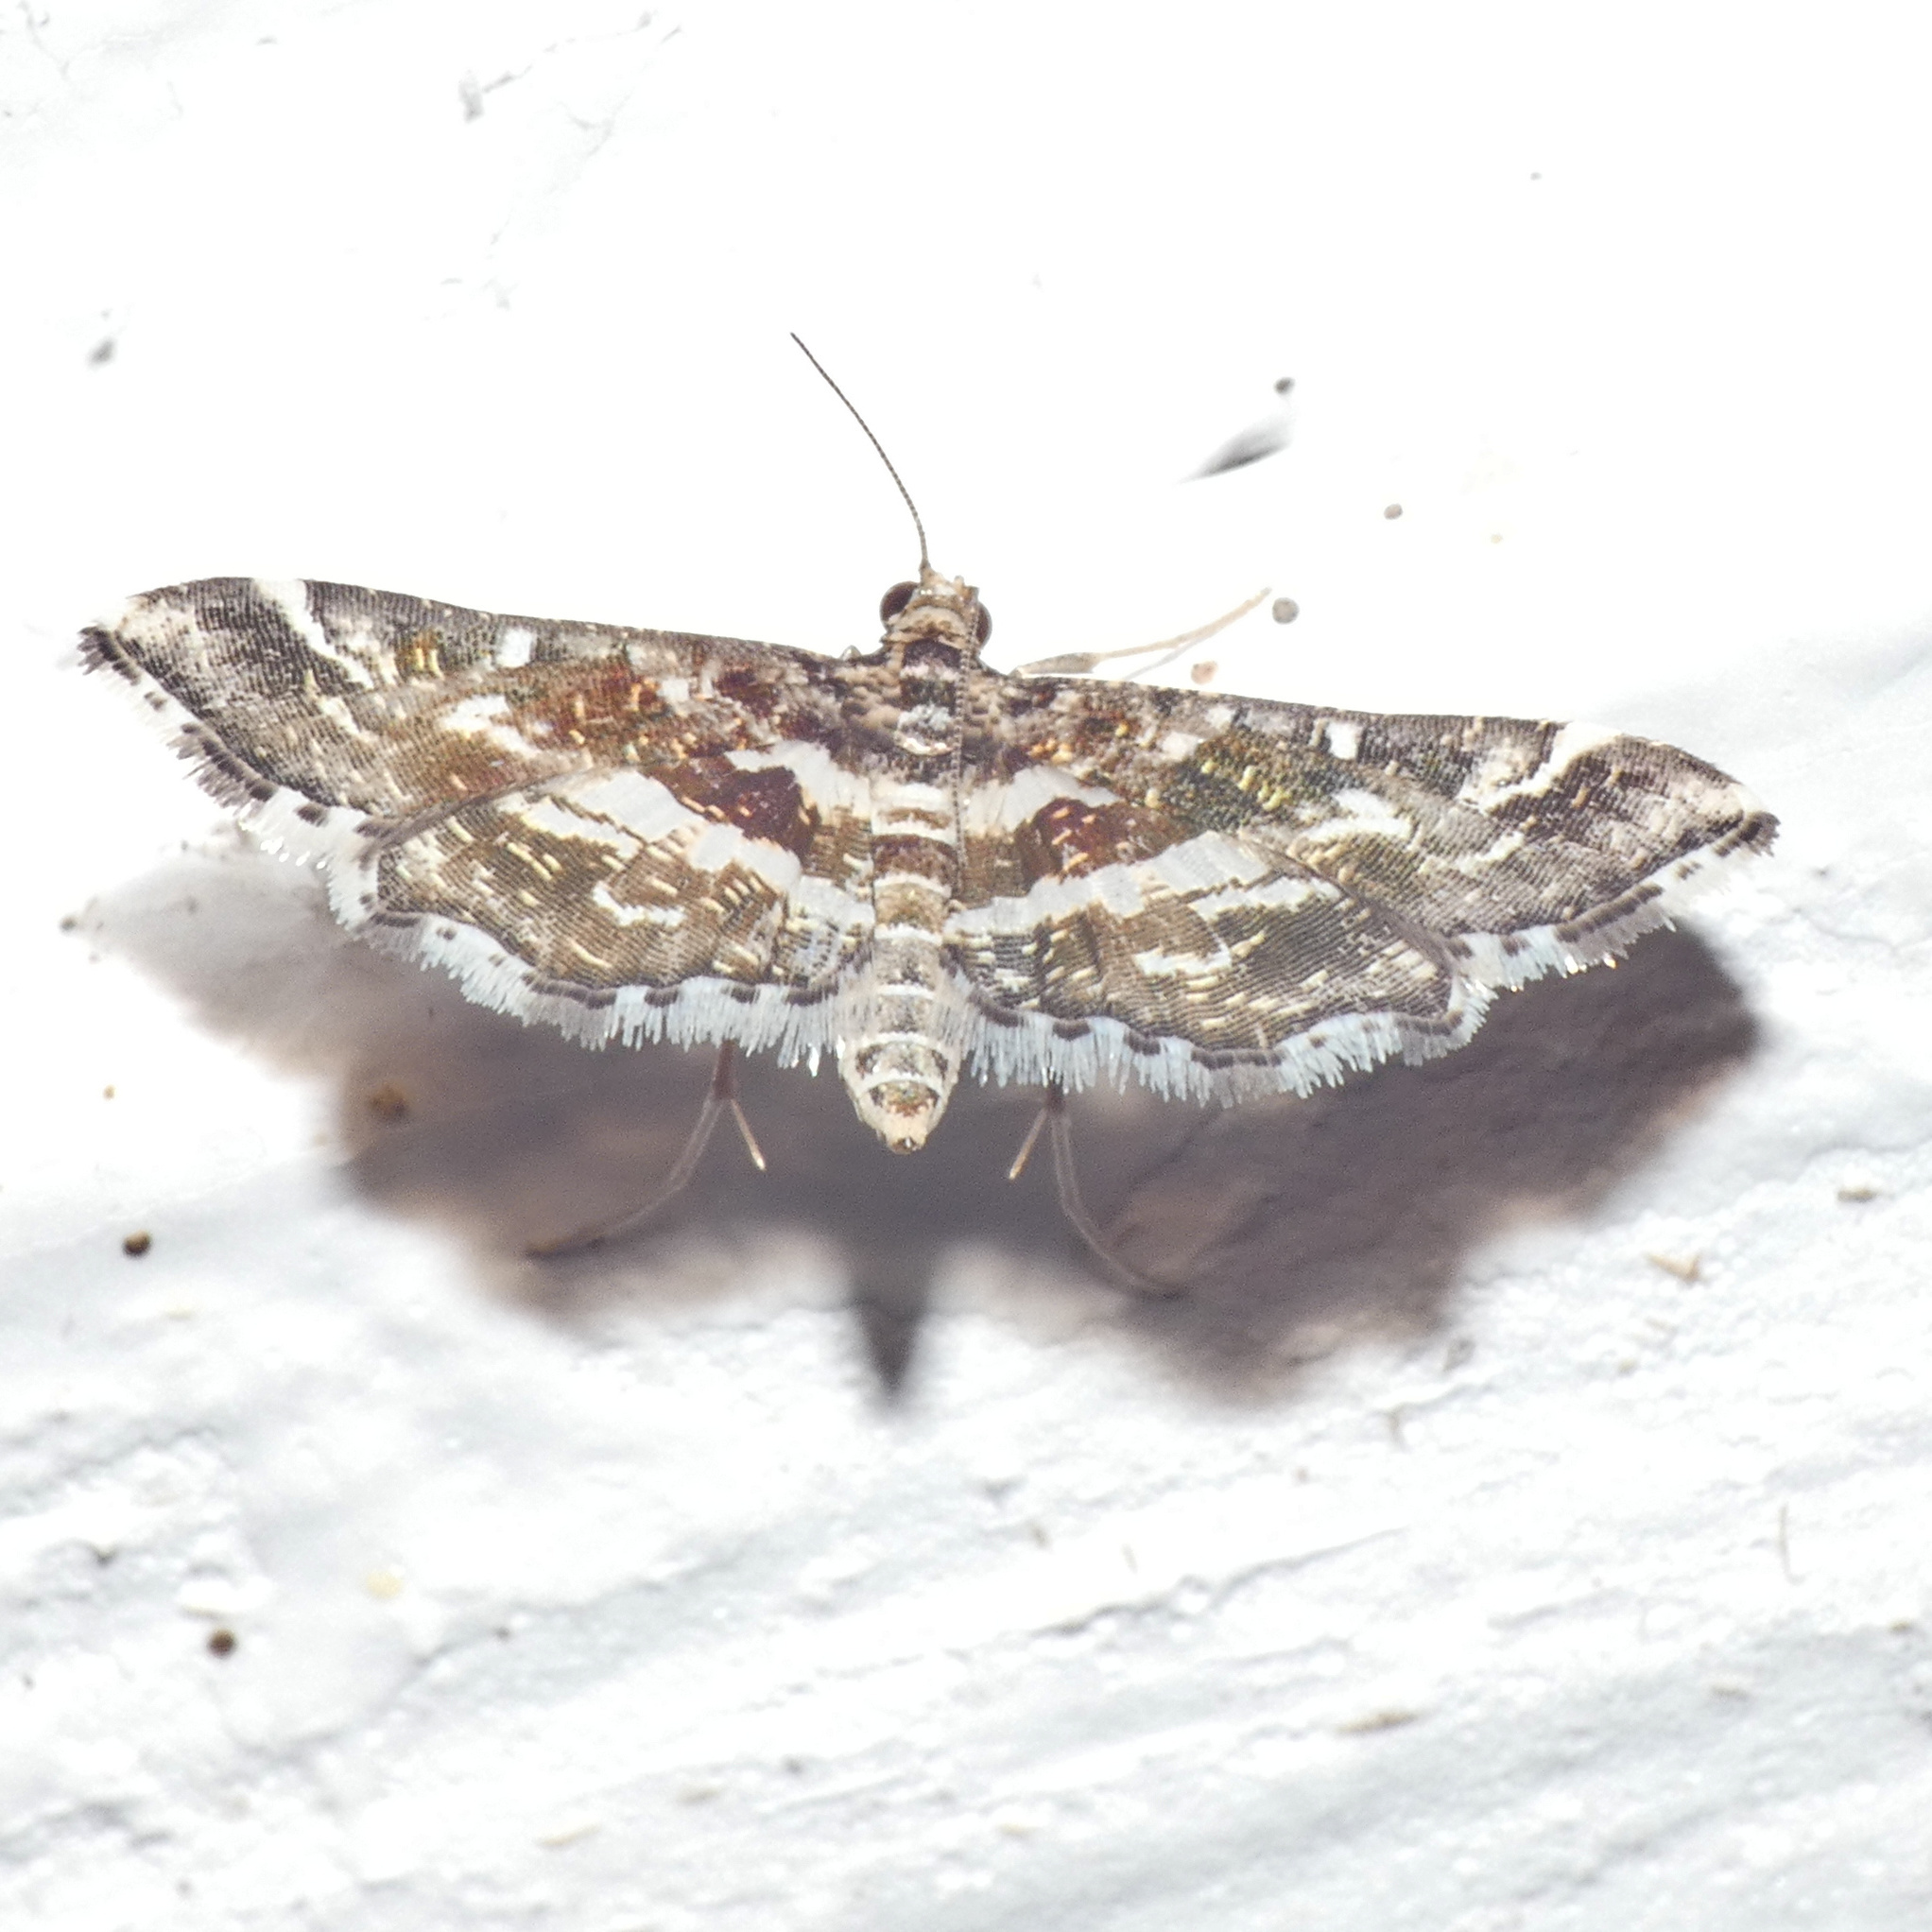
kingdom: Animalia
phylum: Arthropoda
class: Insecta
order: Lepidoptera
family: Crambidae
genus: Diasemiopsis
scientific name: Diasemiopsis ramburialis
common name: Vagrant china-mark
